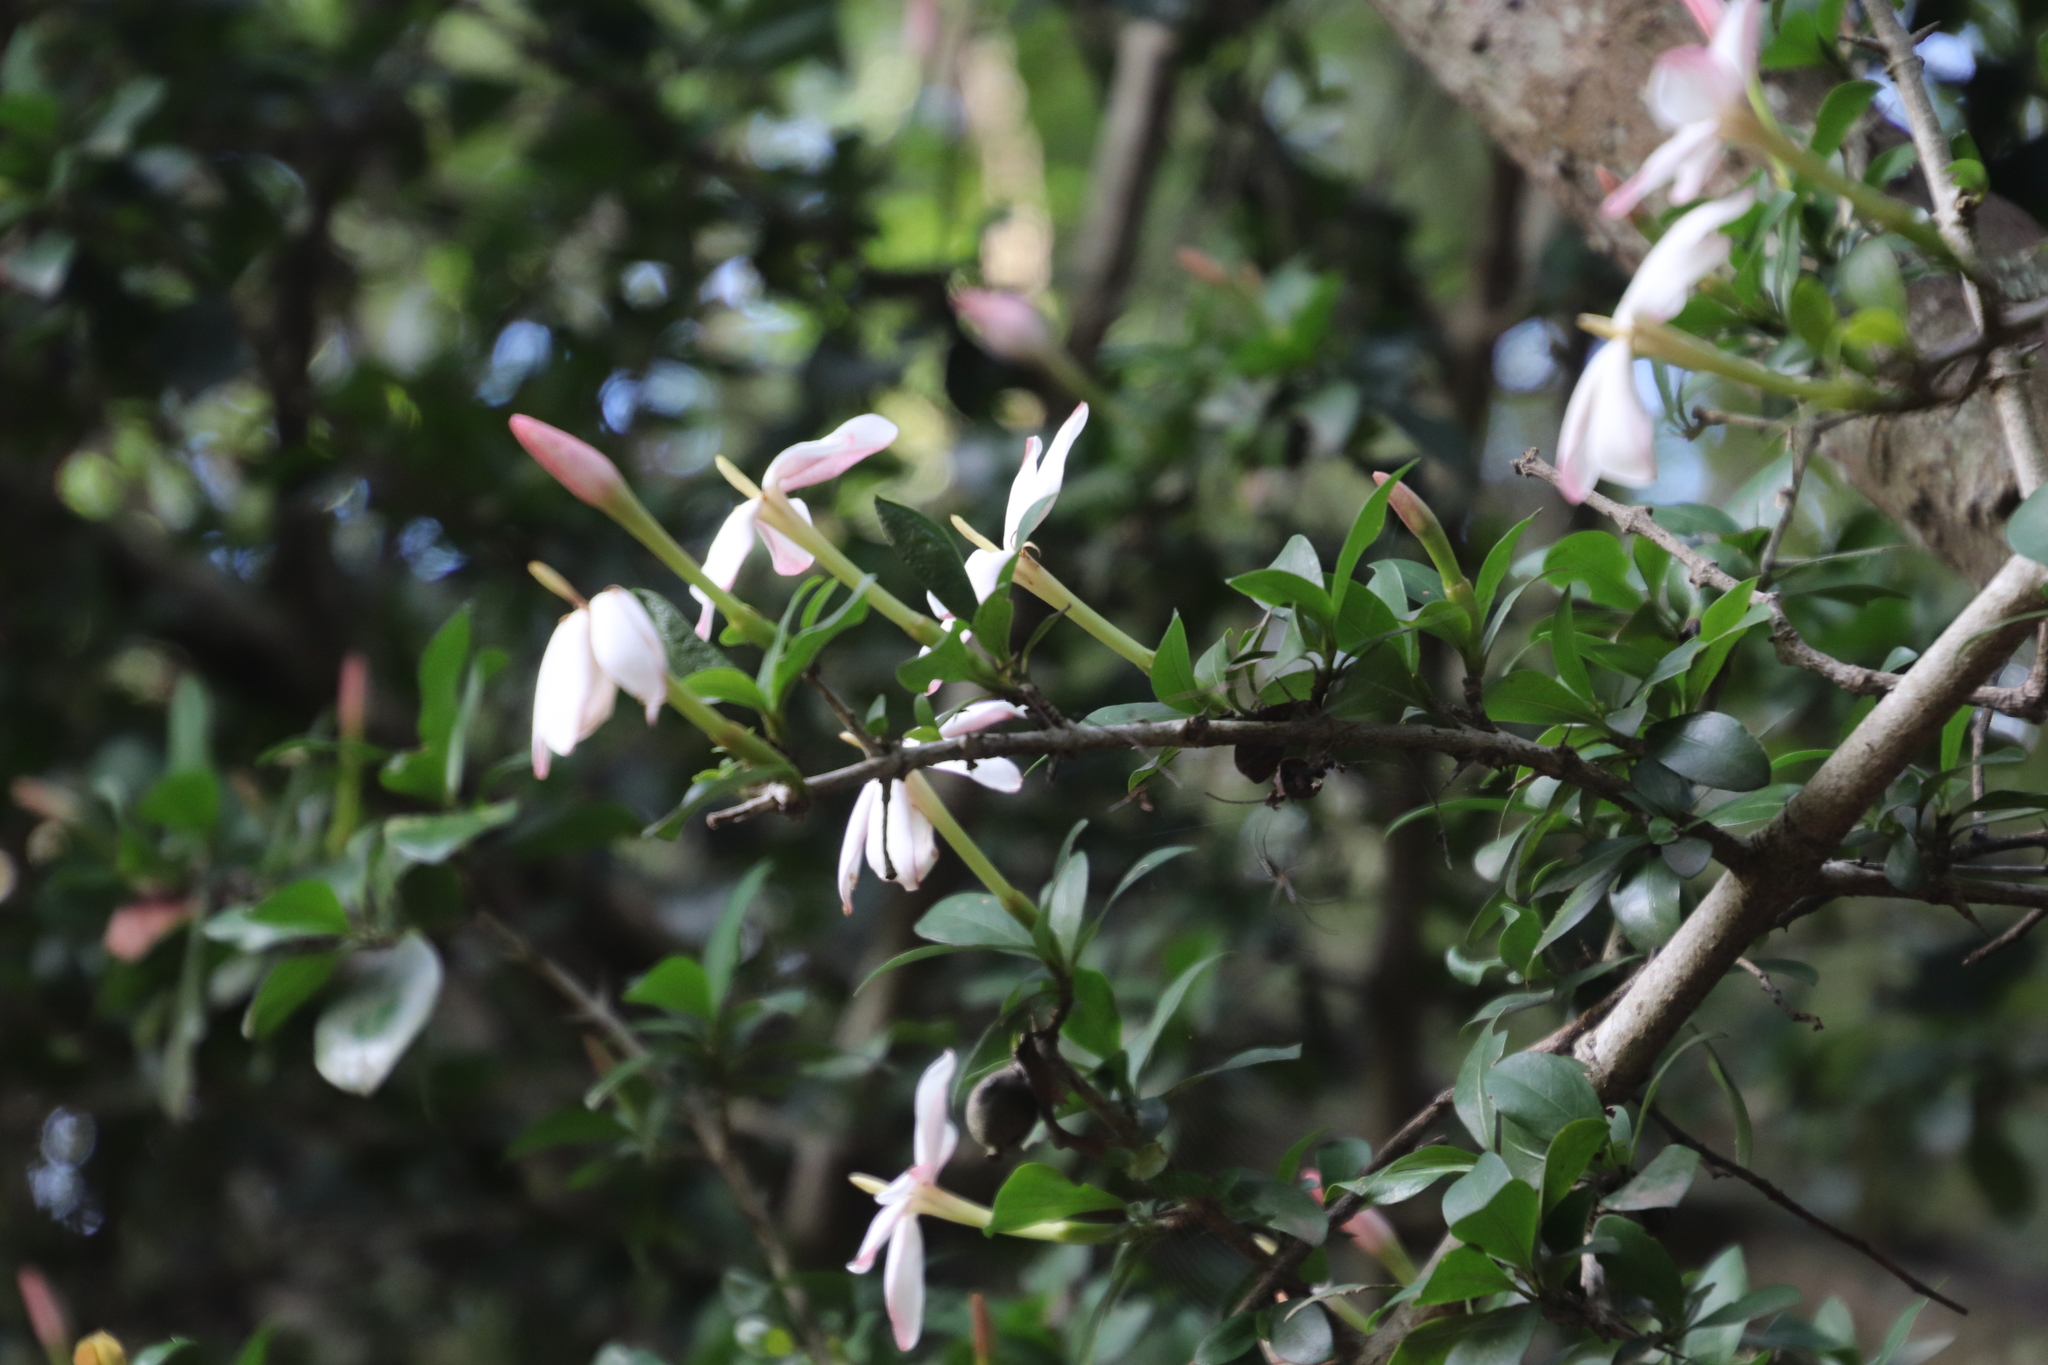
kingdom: Plantae
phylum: Tracheophyta
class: Magnoliopsida
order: Gentianales
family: Rubiaceae
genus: Hyperacanthus
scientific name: Hyperacanthus amoenus
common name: Spiny gardenia
